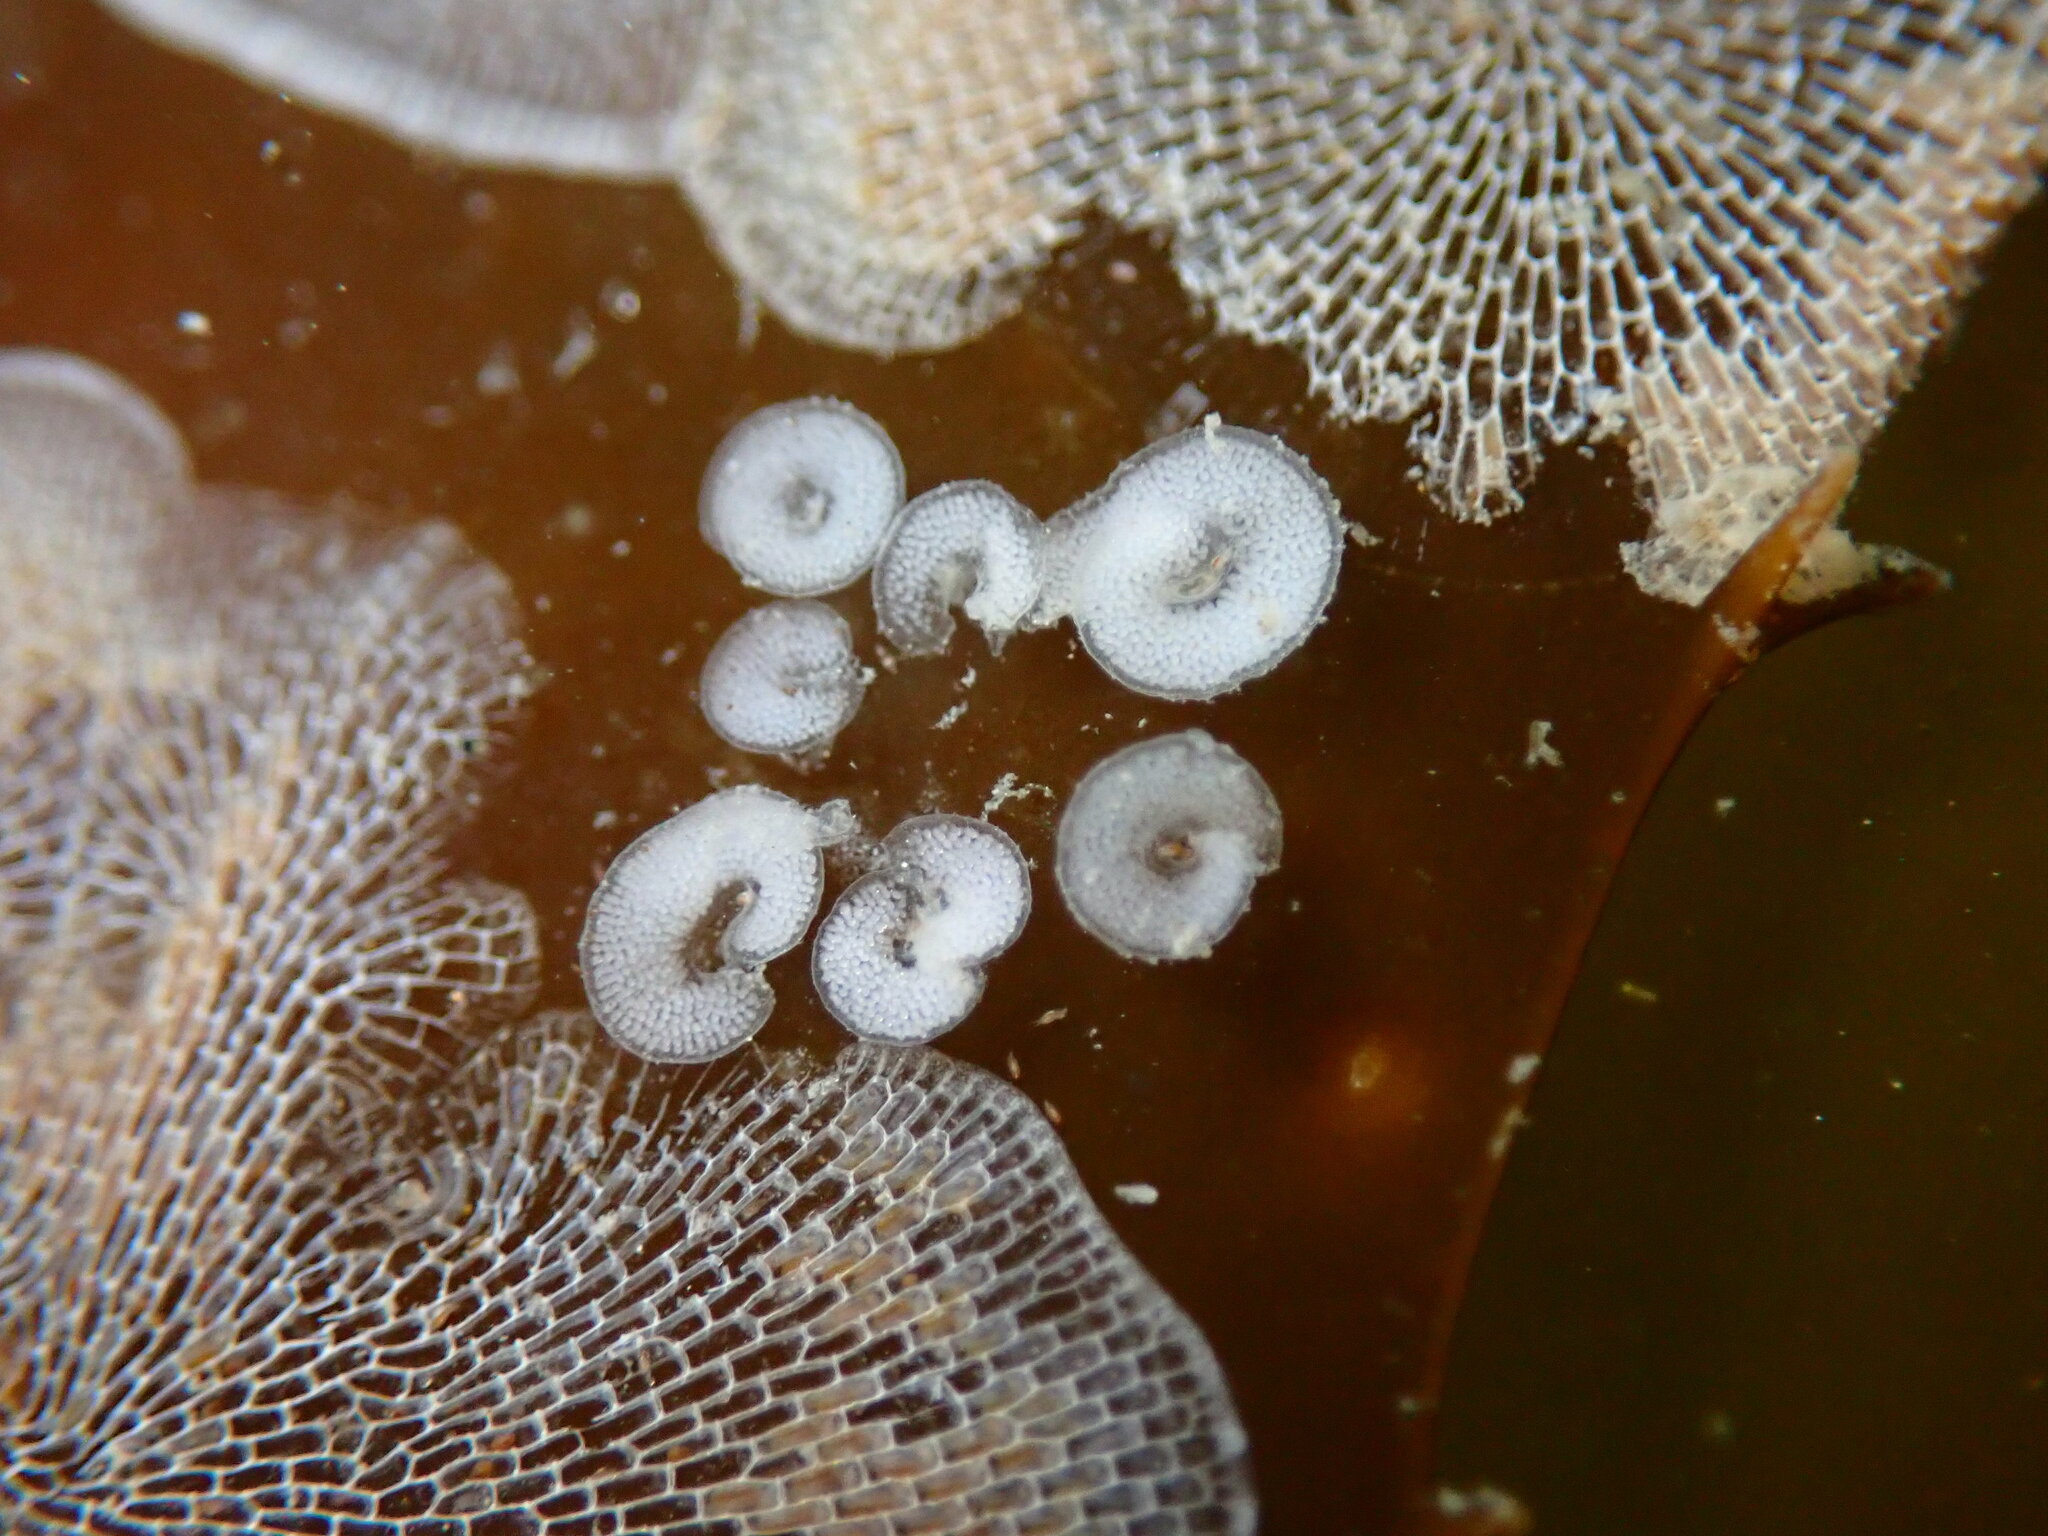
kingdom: Animalia
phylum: Mollusca
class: Gastropoda
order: Nudibranchia
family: Corambidae
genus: Corambe
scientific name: Corambe steinbergae
